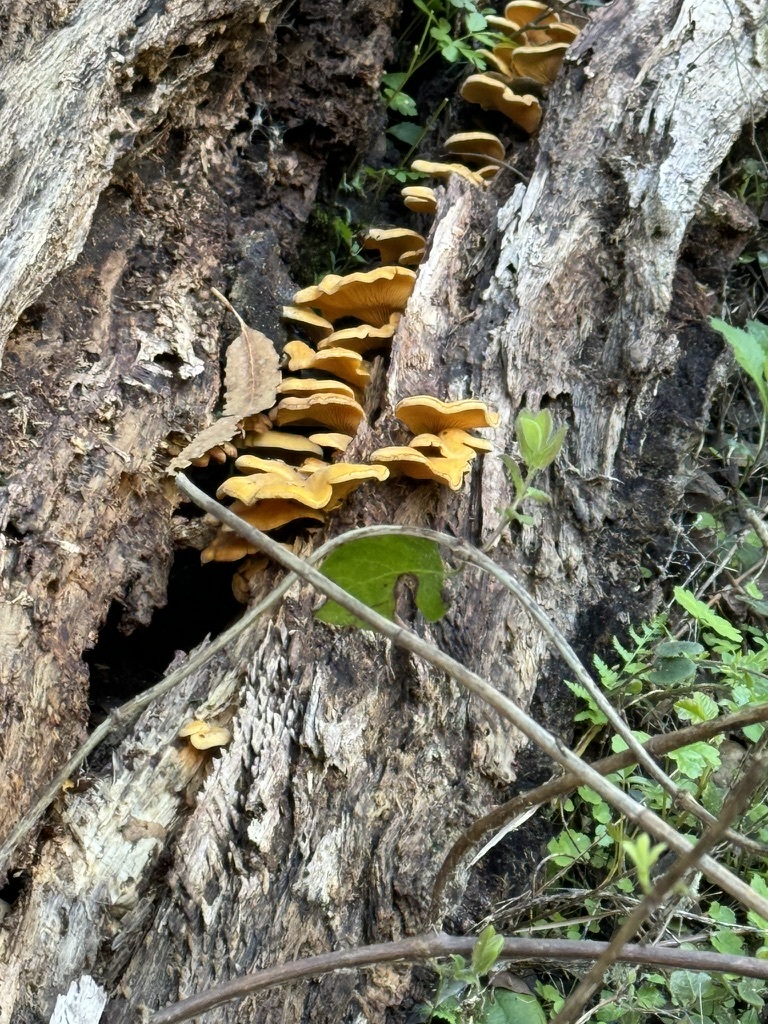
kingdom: Fungi
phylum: Basidiomycota
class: Agaricomycetes
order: Agaricales
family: Phyllotopsidaceae
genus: Phyllotopsis
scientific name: Phyllotopsis nidulans
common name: Orange mock oyster
